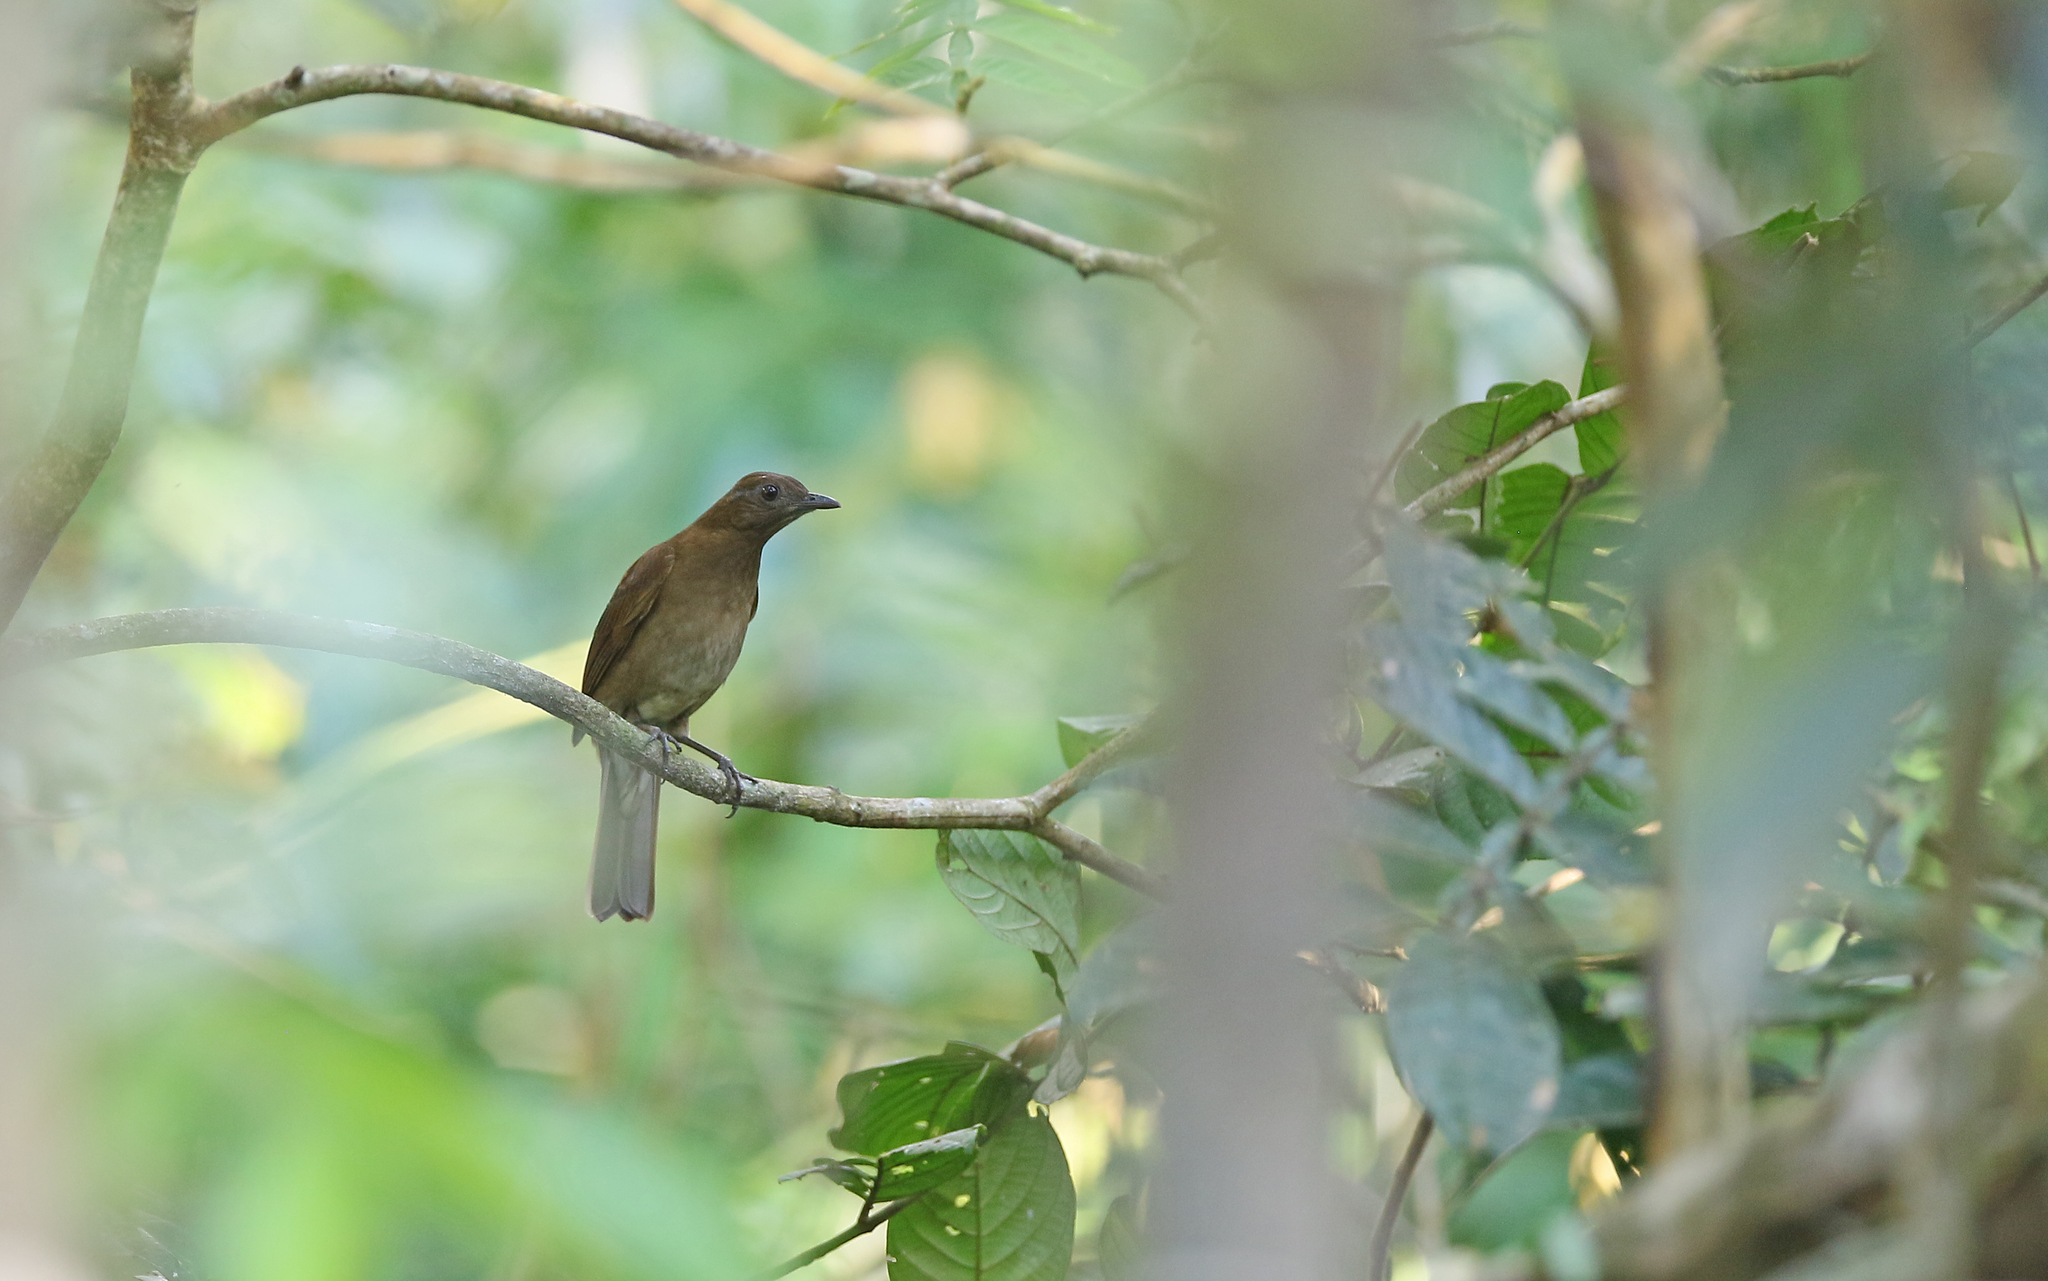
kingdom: Animalia
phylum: Chordata
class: Aves
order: Passeriformes
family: Turdidae
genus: Turdus
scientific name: Turdus hauxwelli
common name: Hauxwell's thrush
